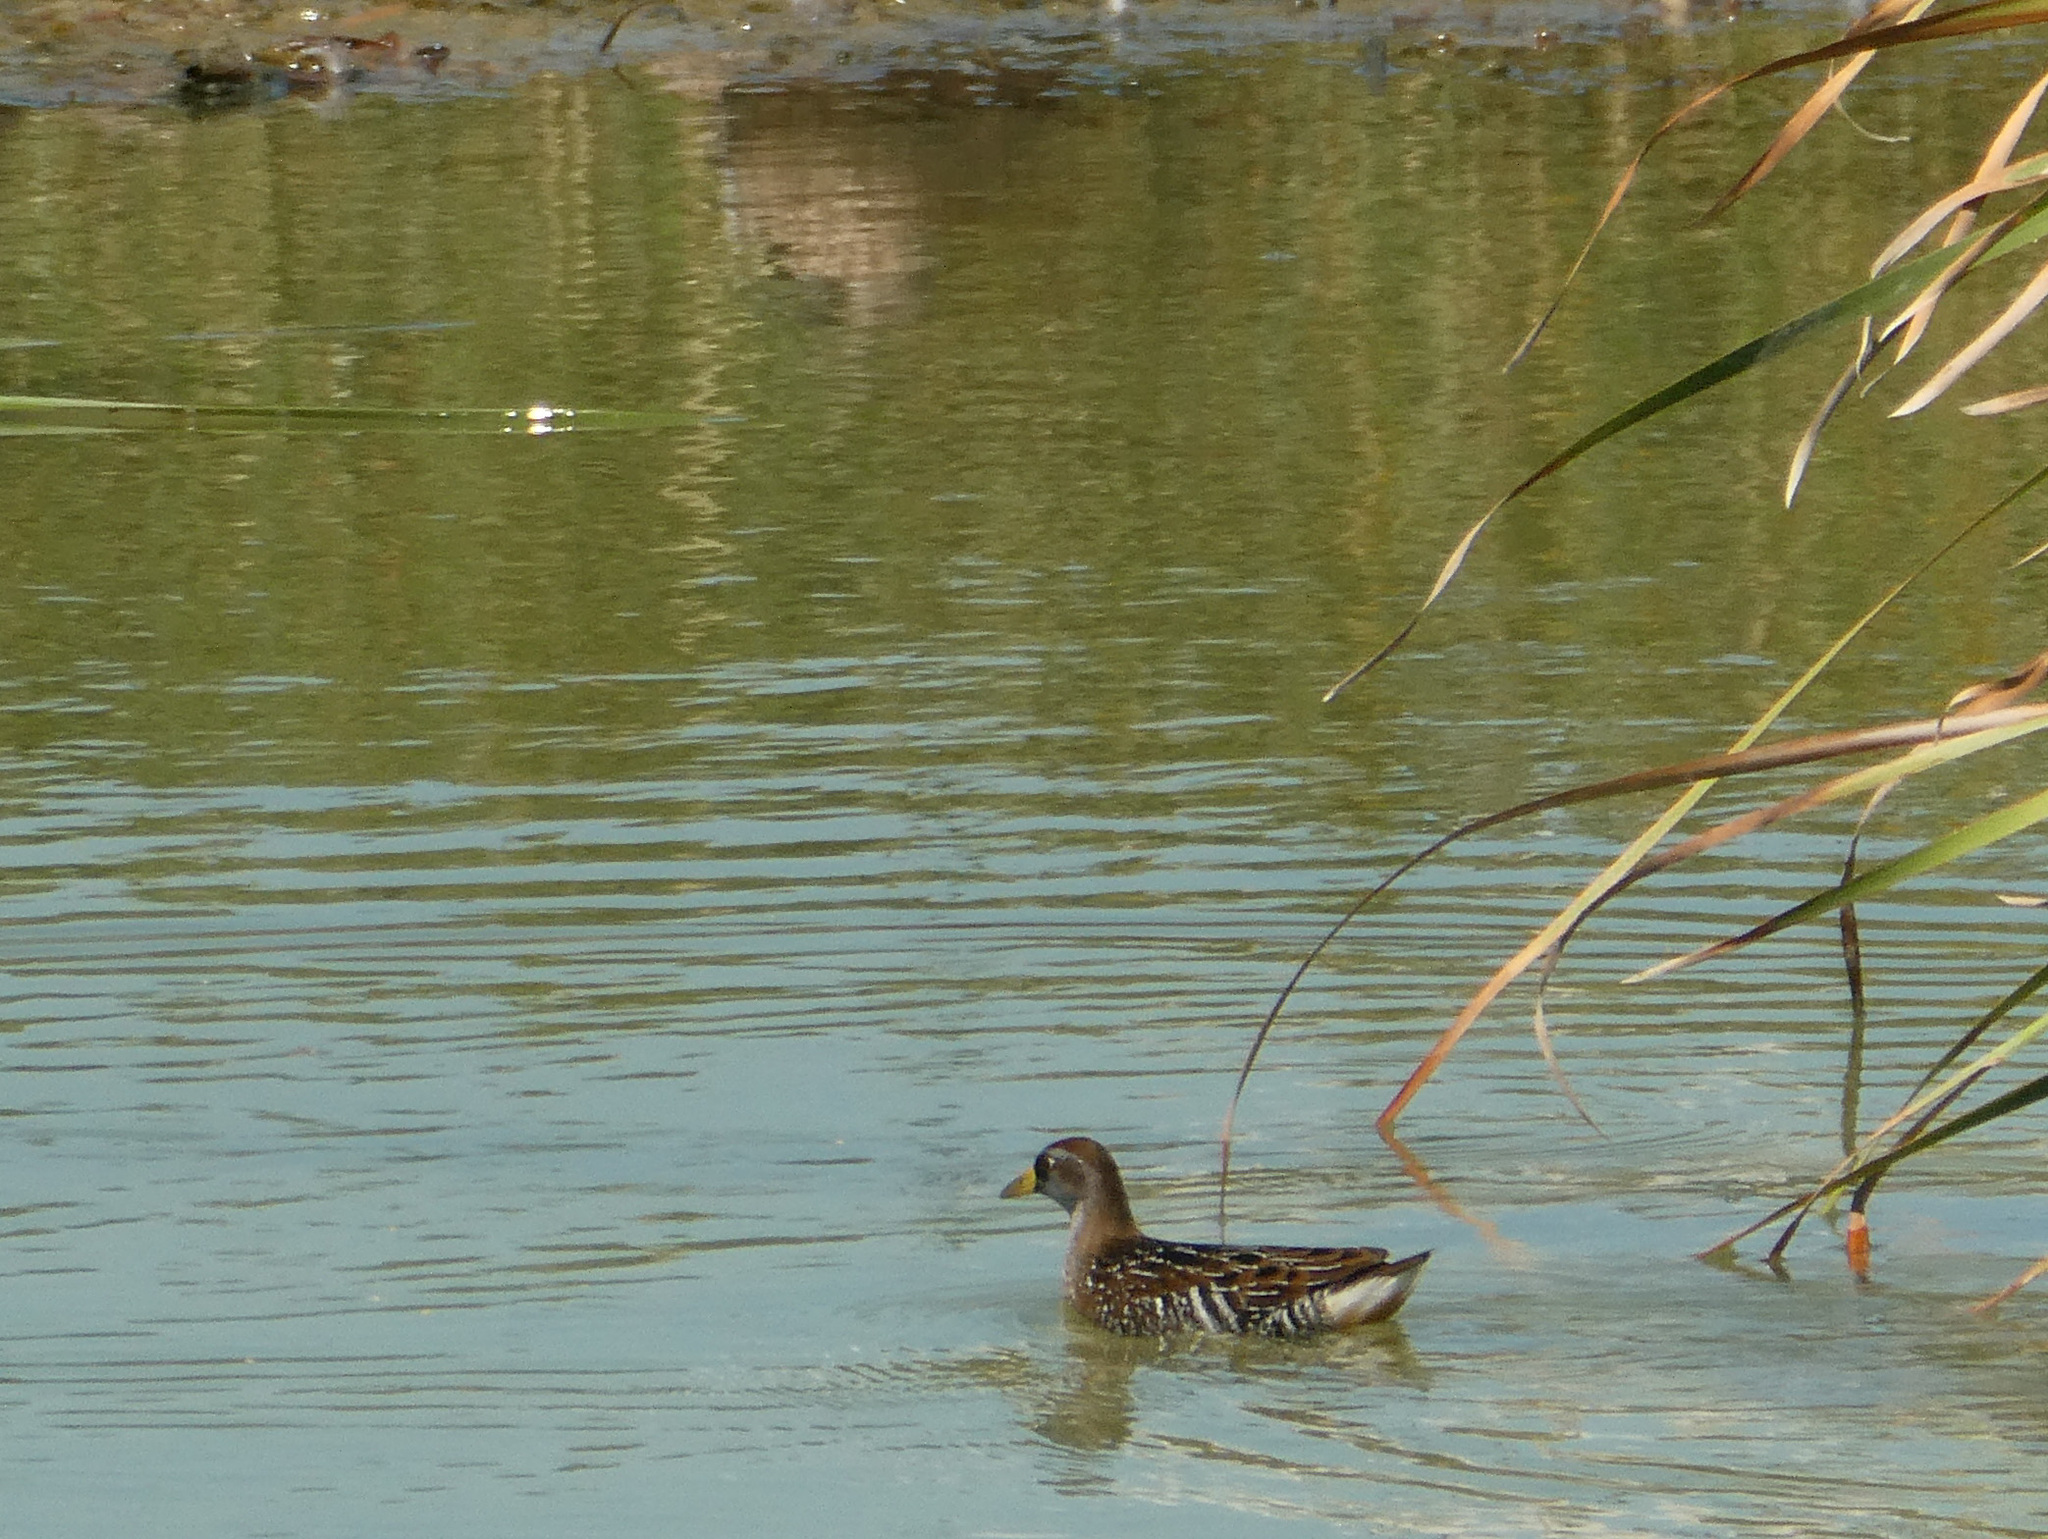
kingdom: Animalia
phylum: Chordata
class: Aves
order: Gruiformes
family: Rallidae
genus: Porzana
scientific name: Porzana carolina
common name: Sora
